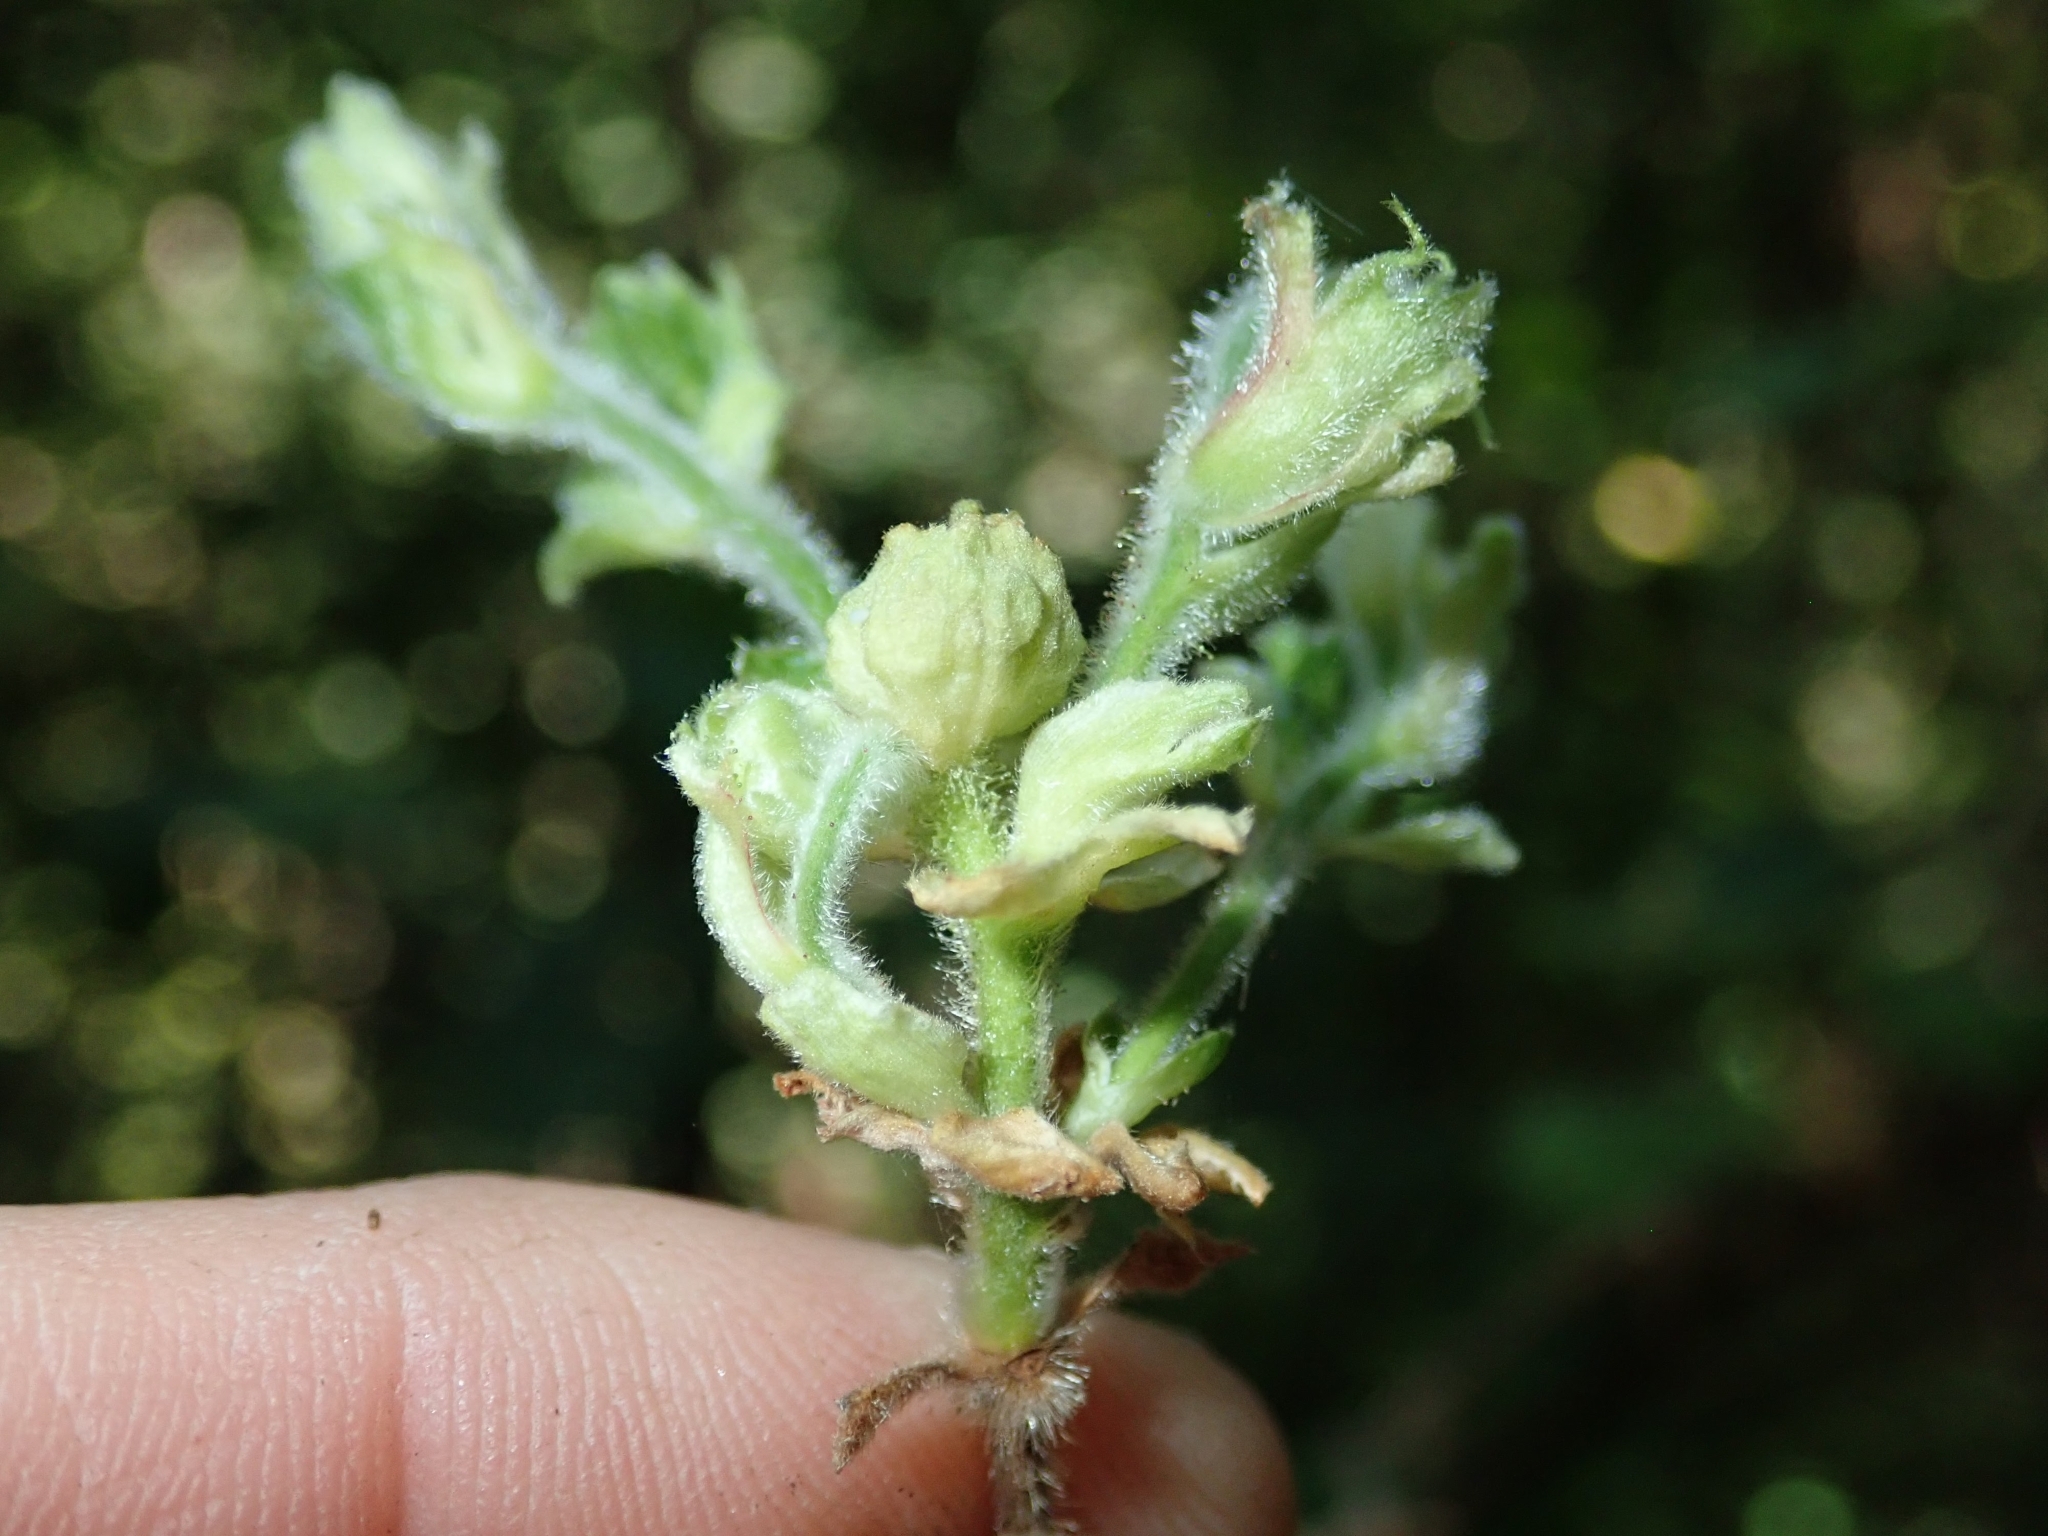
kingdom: Plantae
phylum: Tracheophyta
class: Magnoliopsida
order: Fagales
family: Betulaceae
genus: Corylus
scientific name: Corylus cornuta
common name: Beaked hazel
